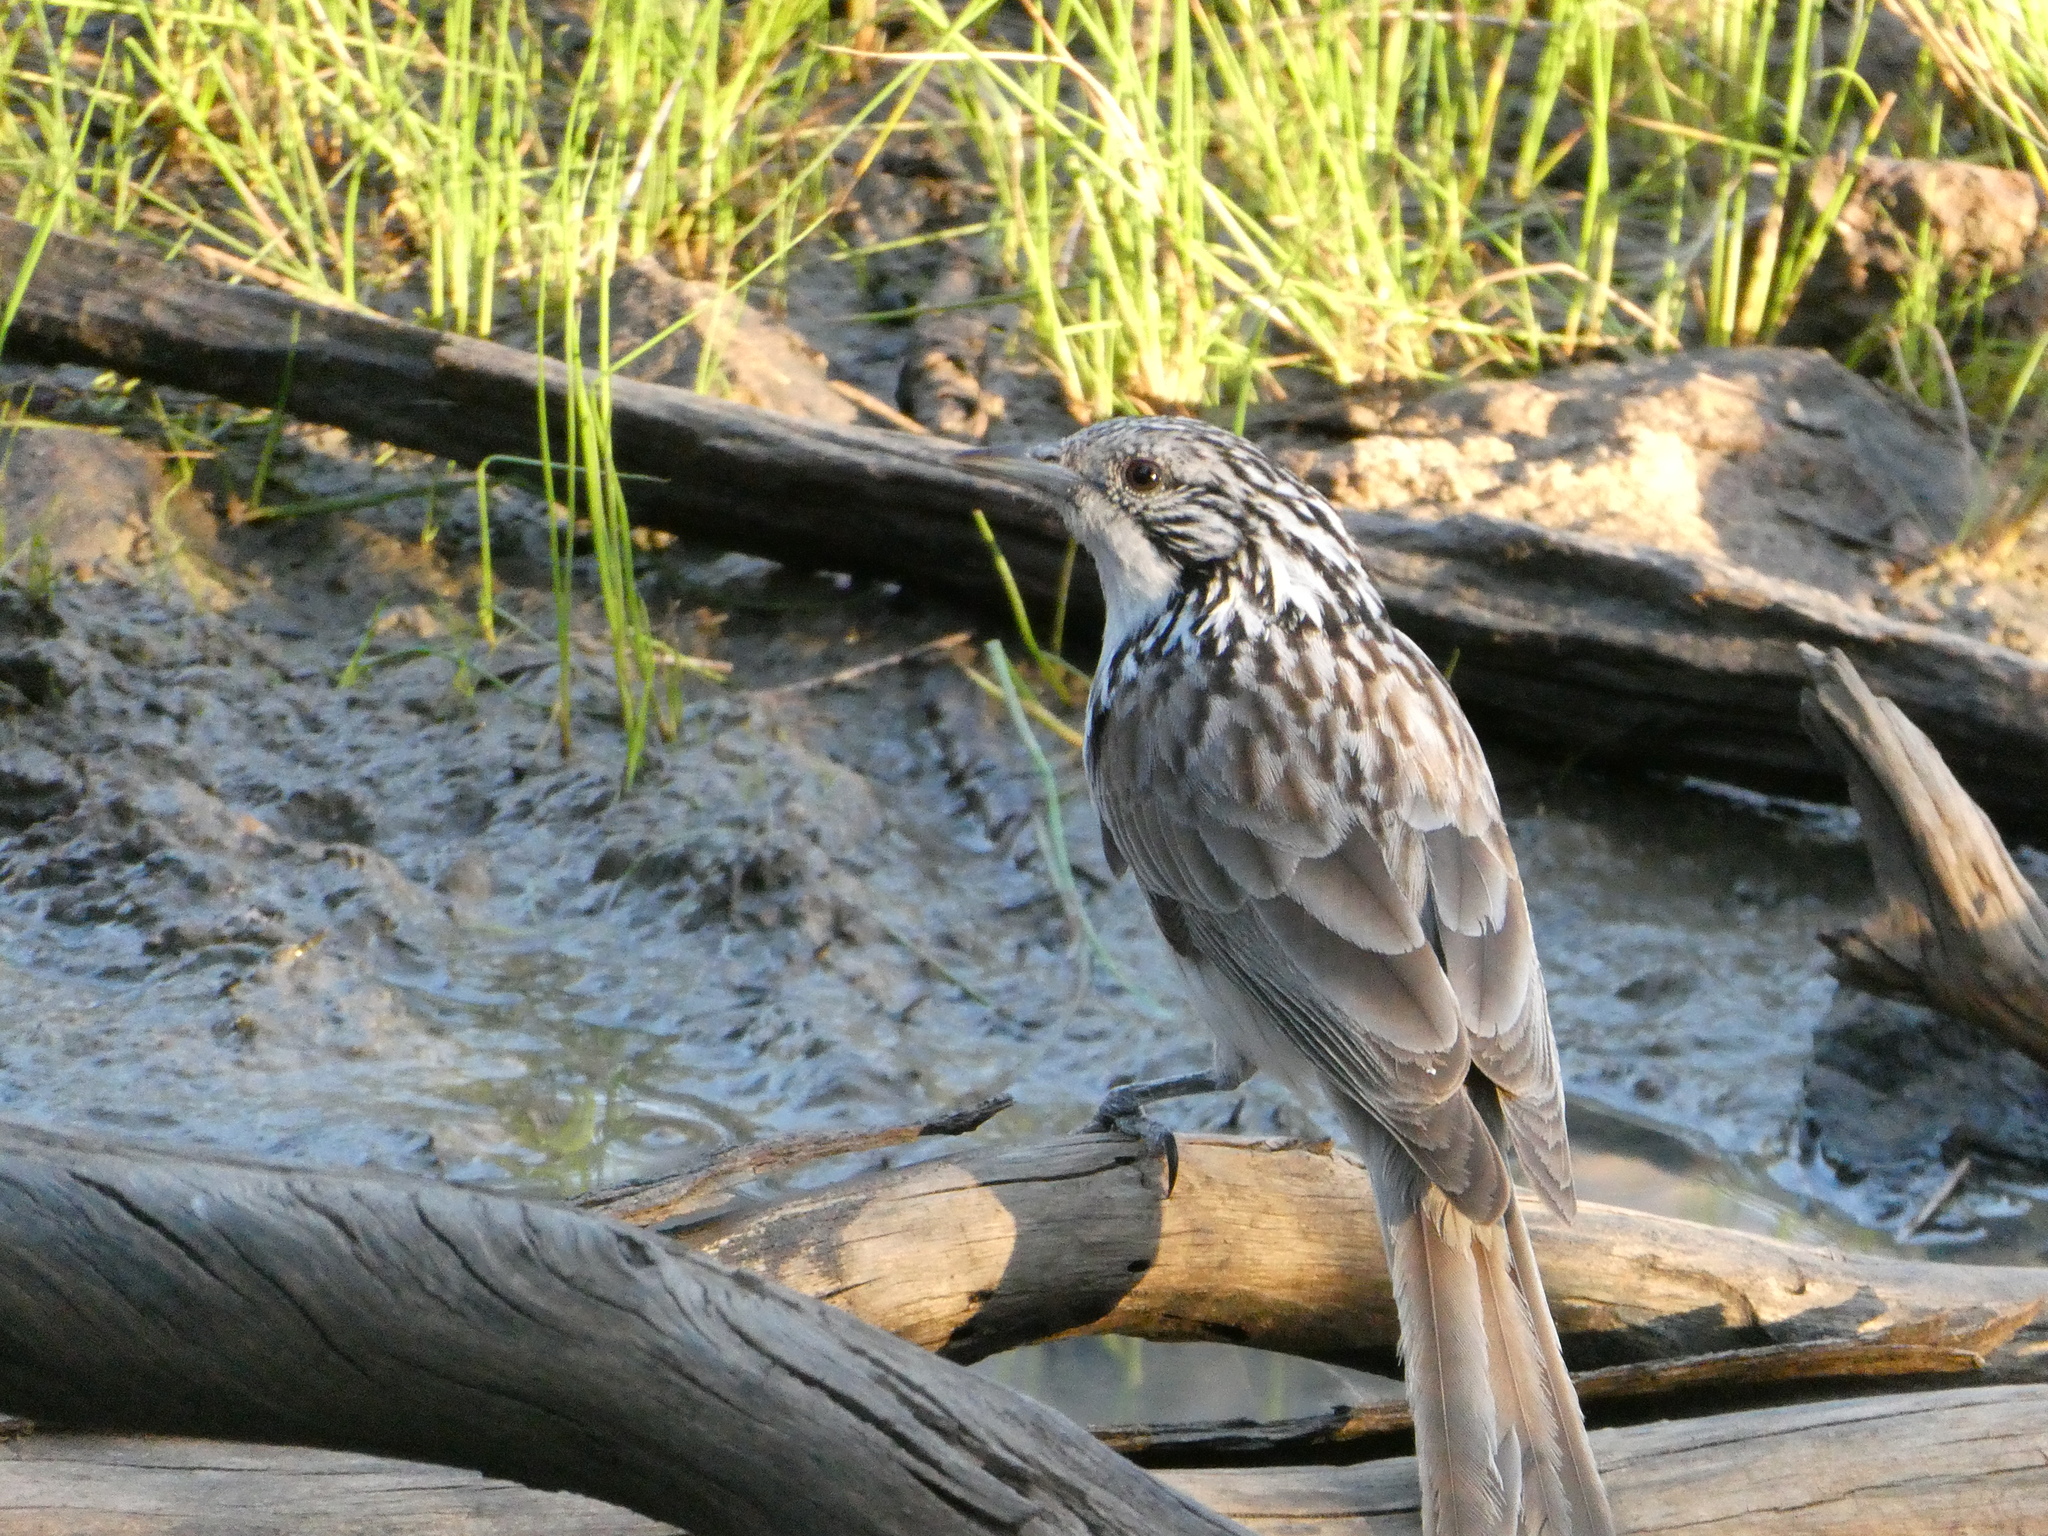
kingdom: Animalia
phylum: Chordata
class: Aves
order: Passeriformes
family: Meliphagidae
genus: Plectorhyncha
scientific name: Plectorhyncha lanceolata
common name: Striped honeyeater
